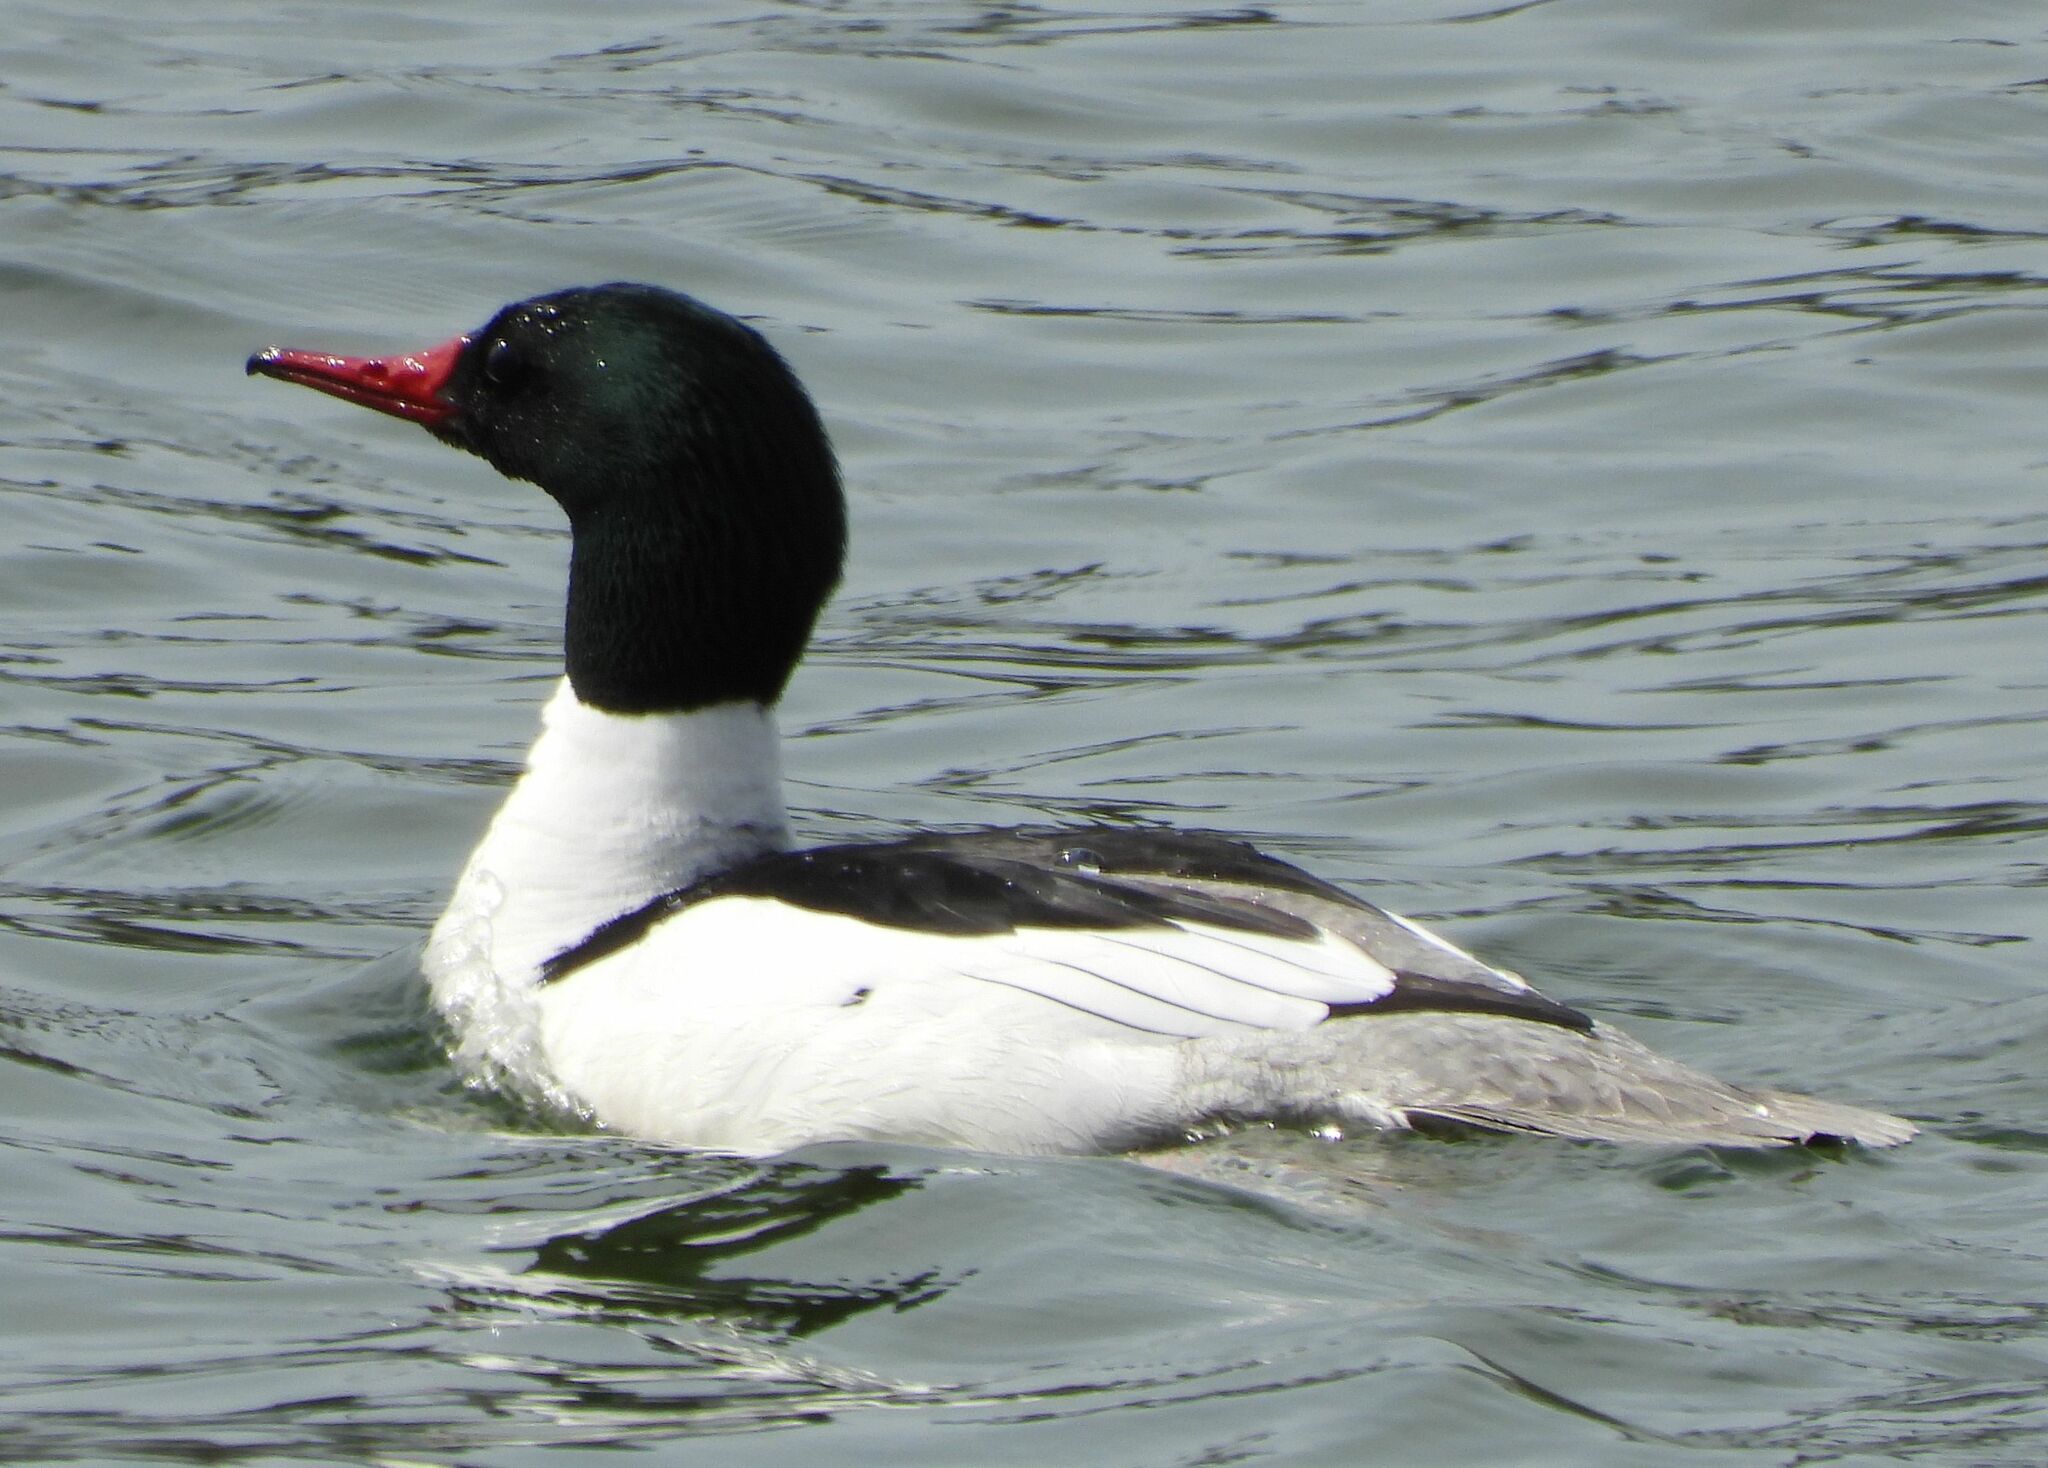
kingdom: Animalia
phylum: Chordata
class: Aves
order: Anseriformes
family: Anatidae
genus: Mergus
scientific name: Mergus merganser
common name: Common merganser
